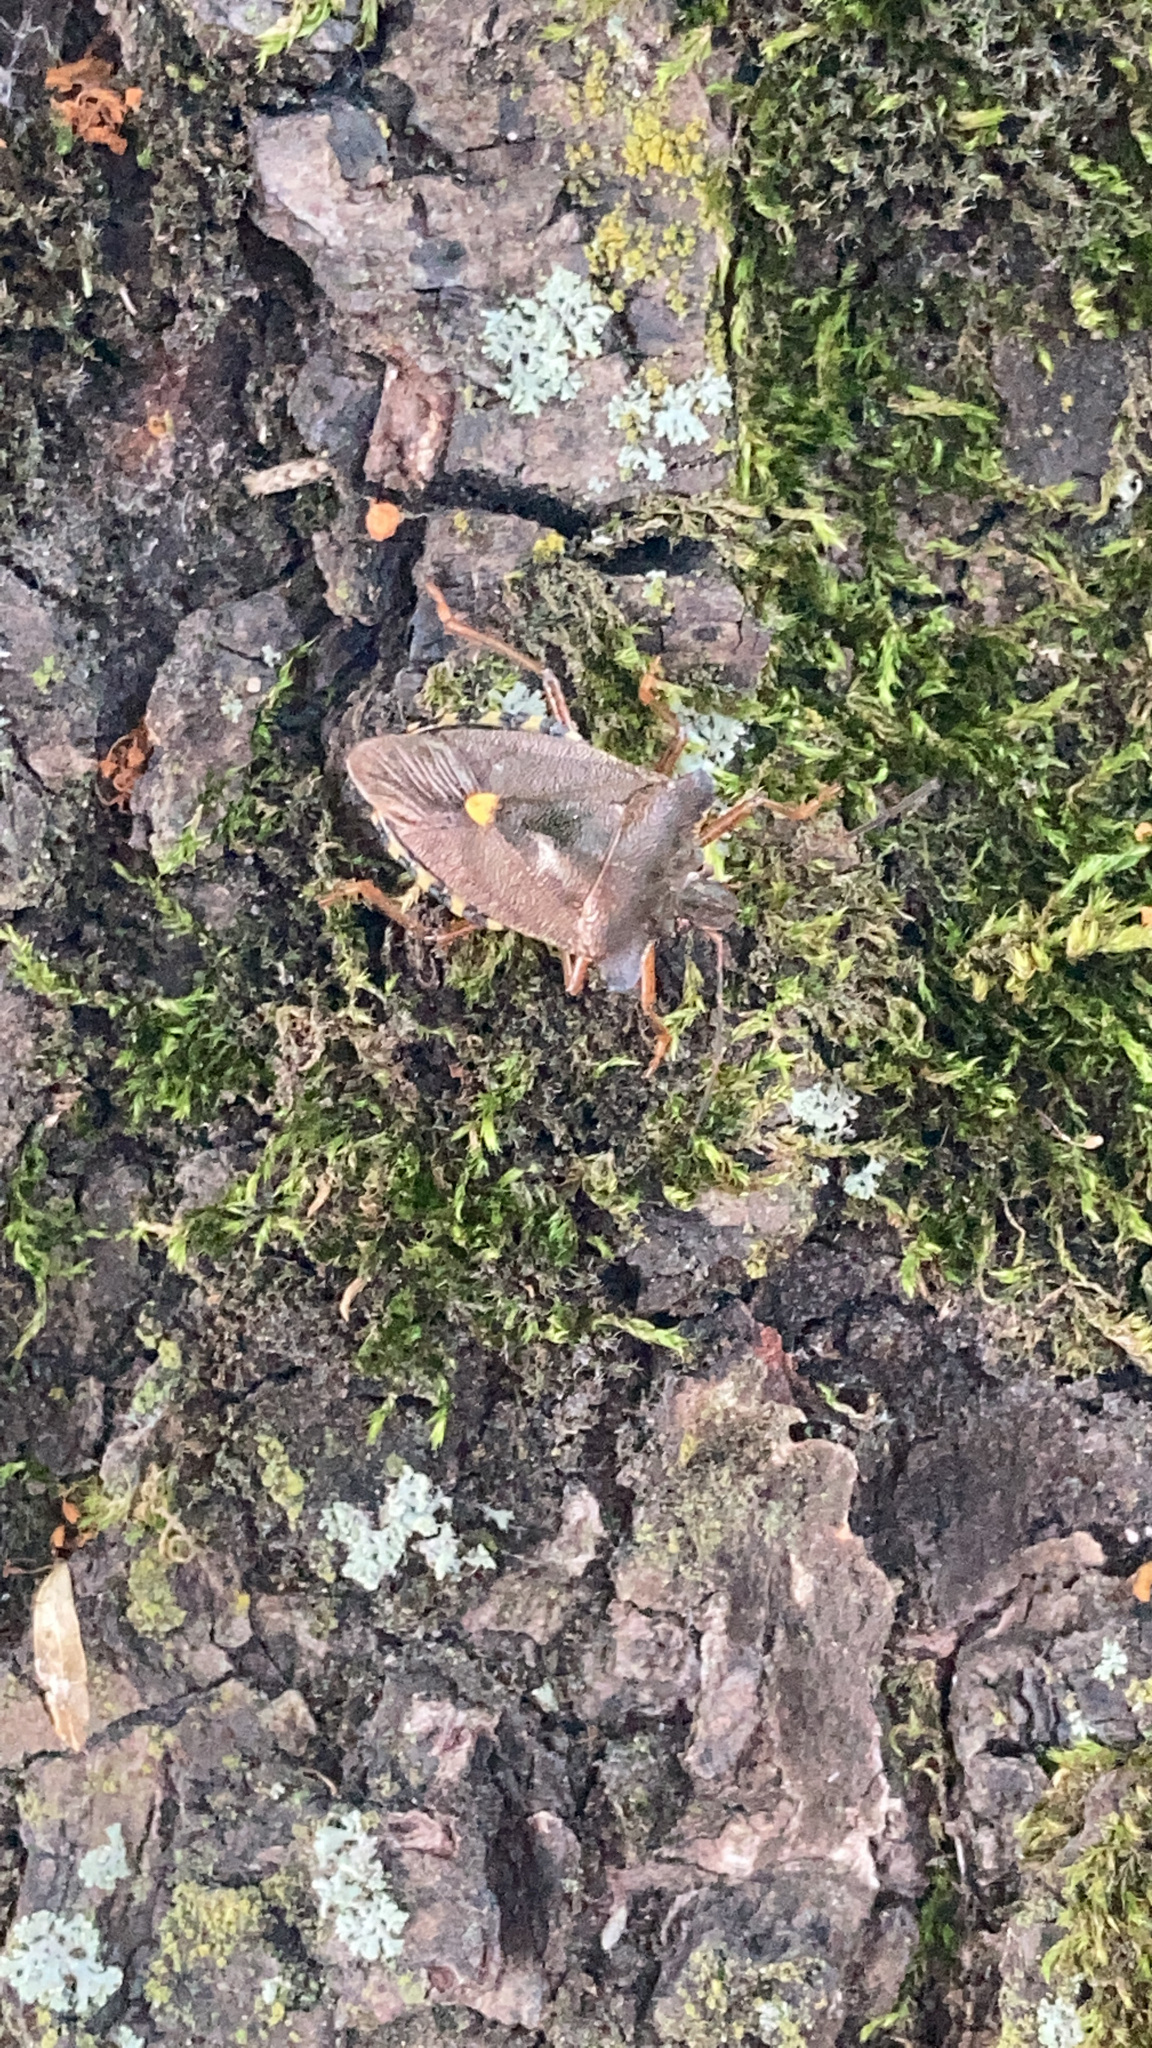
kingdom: Animalia
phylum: Arthropoda
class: Insecta
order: Hemiptera
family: Pentatomidae
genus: Pentatoma
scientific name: Pentatoma rufipes
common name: Forest bug
